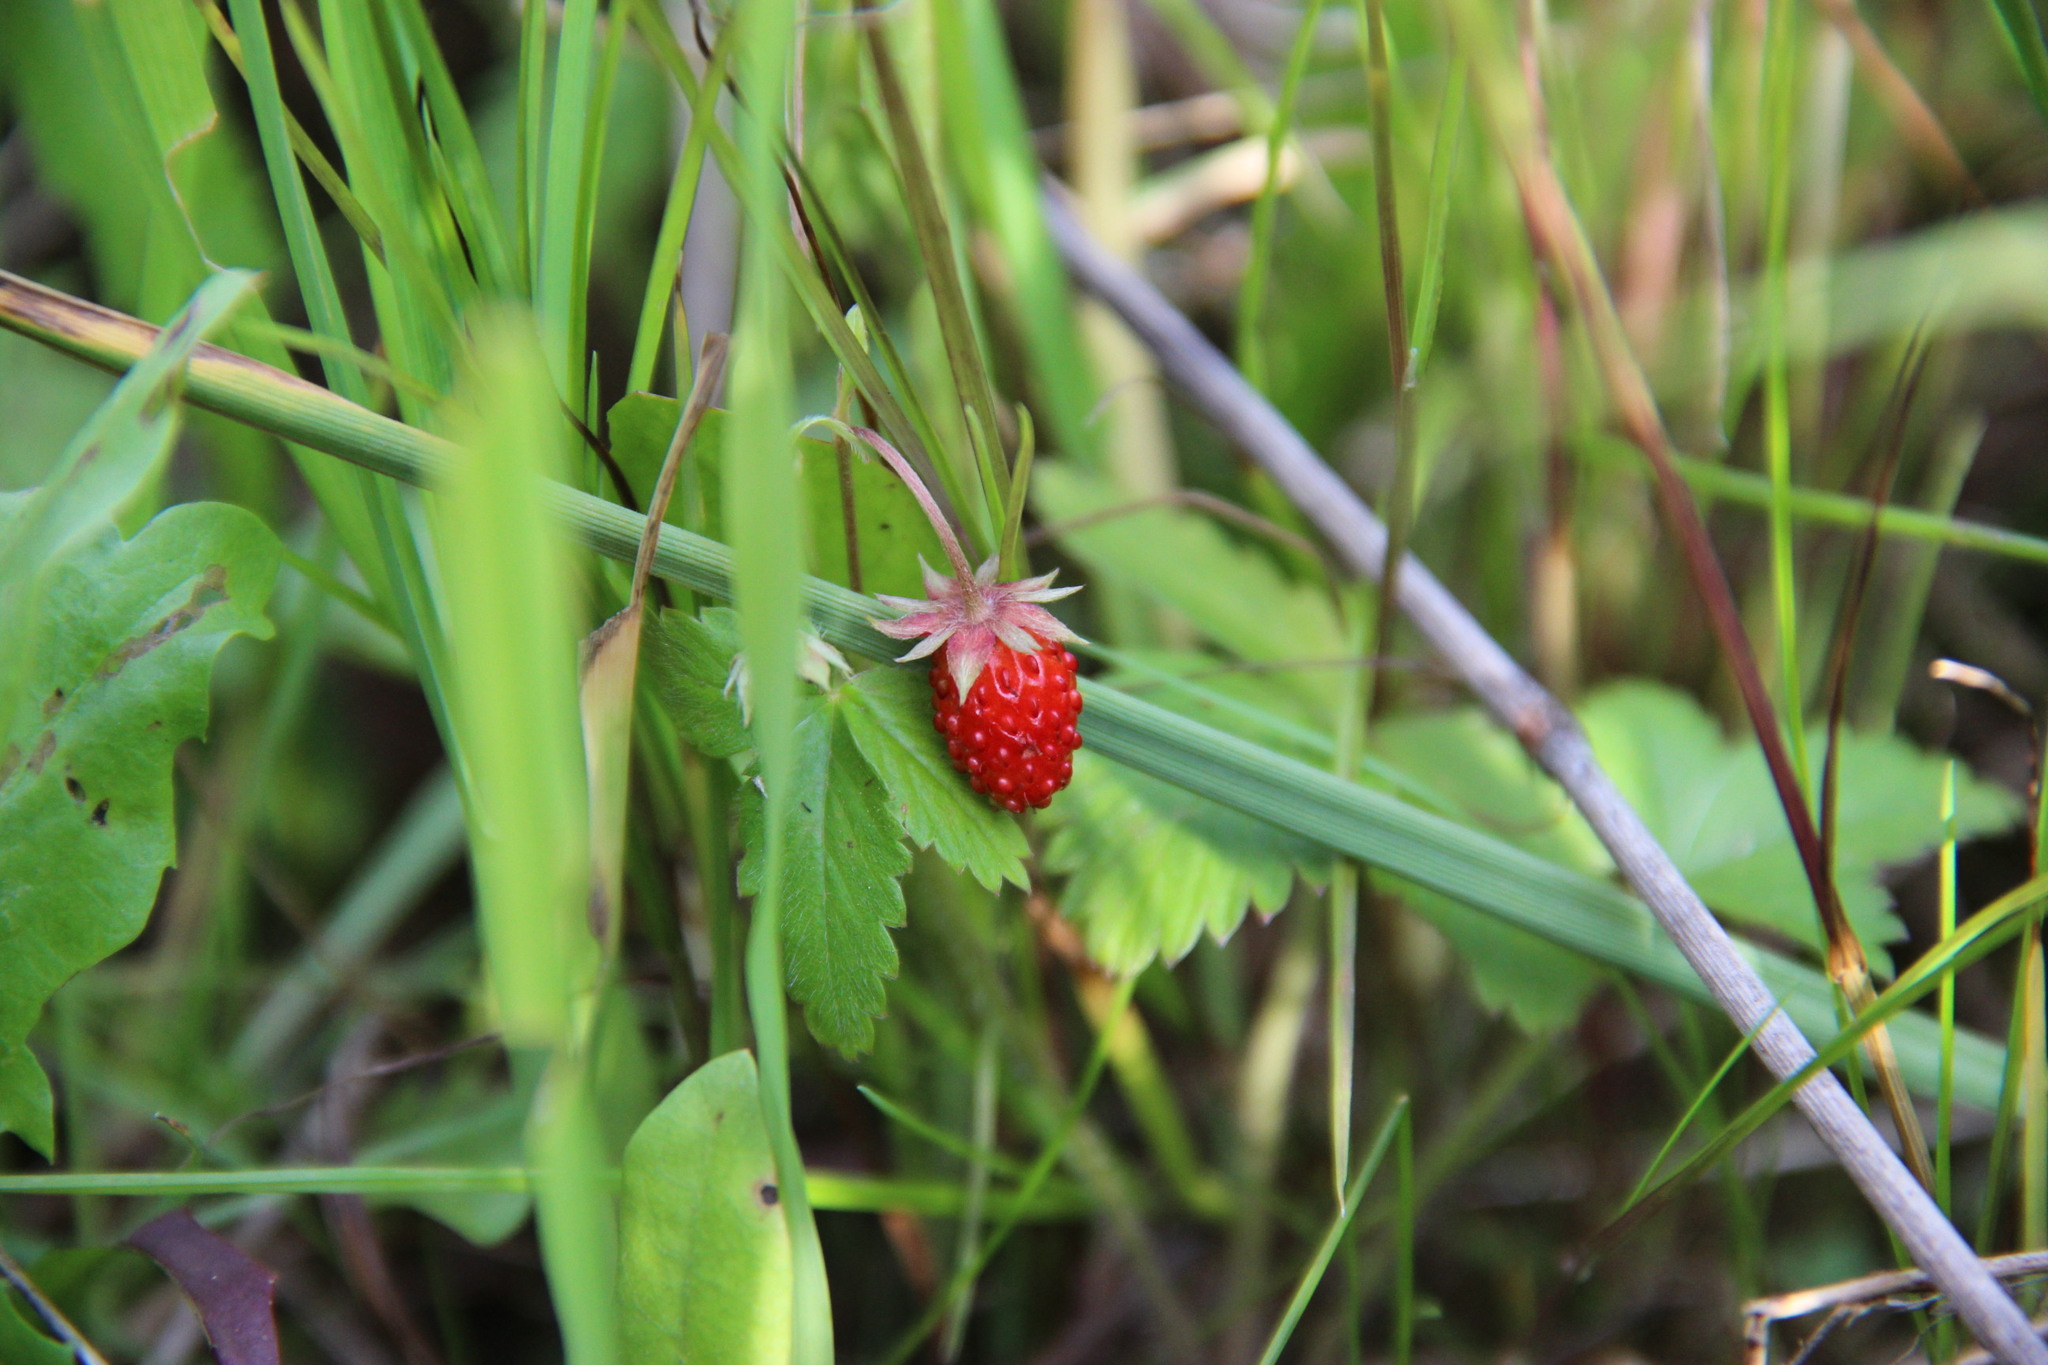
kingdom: Plantae
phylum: Tracheophyta
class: Magnoliopsida
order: Rosales
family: Rosaceae
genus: Fragaria
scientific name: Fragaria vesca
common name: Wild strawberry
